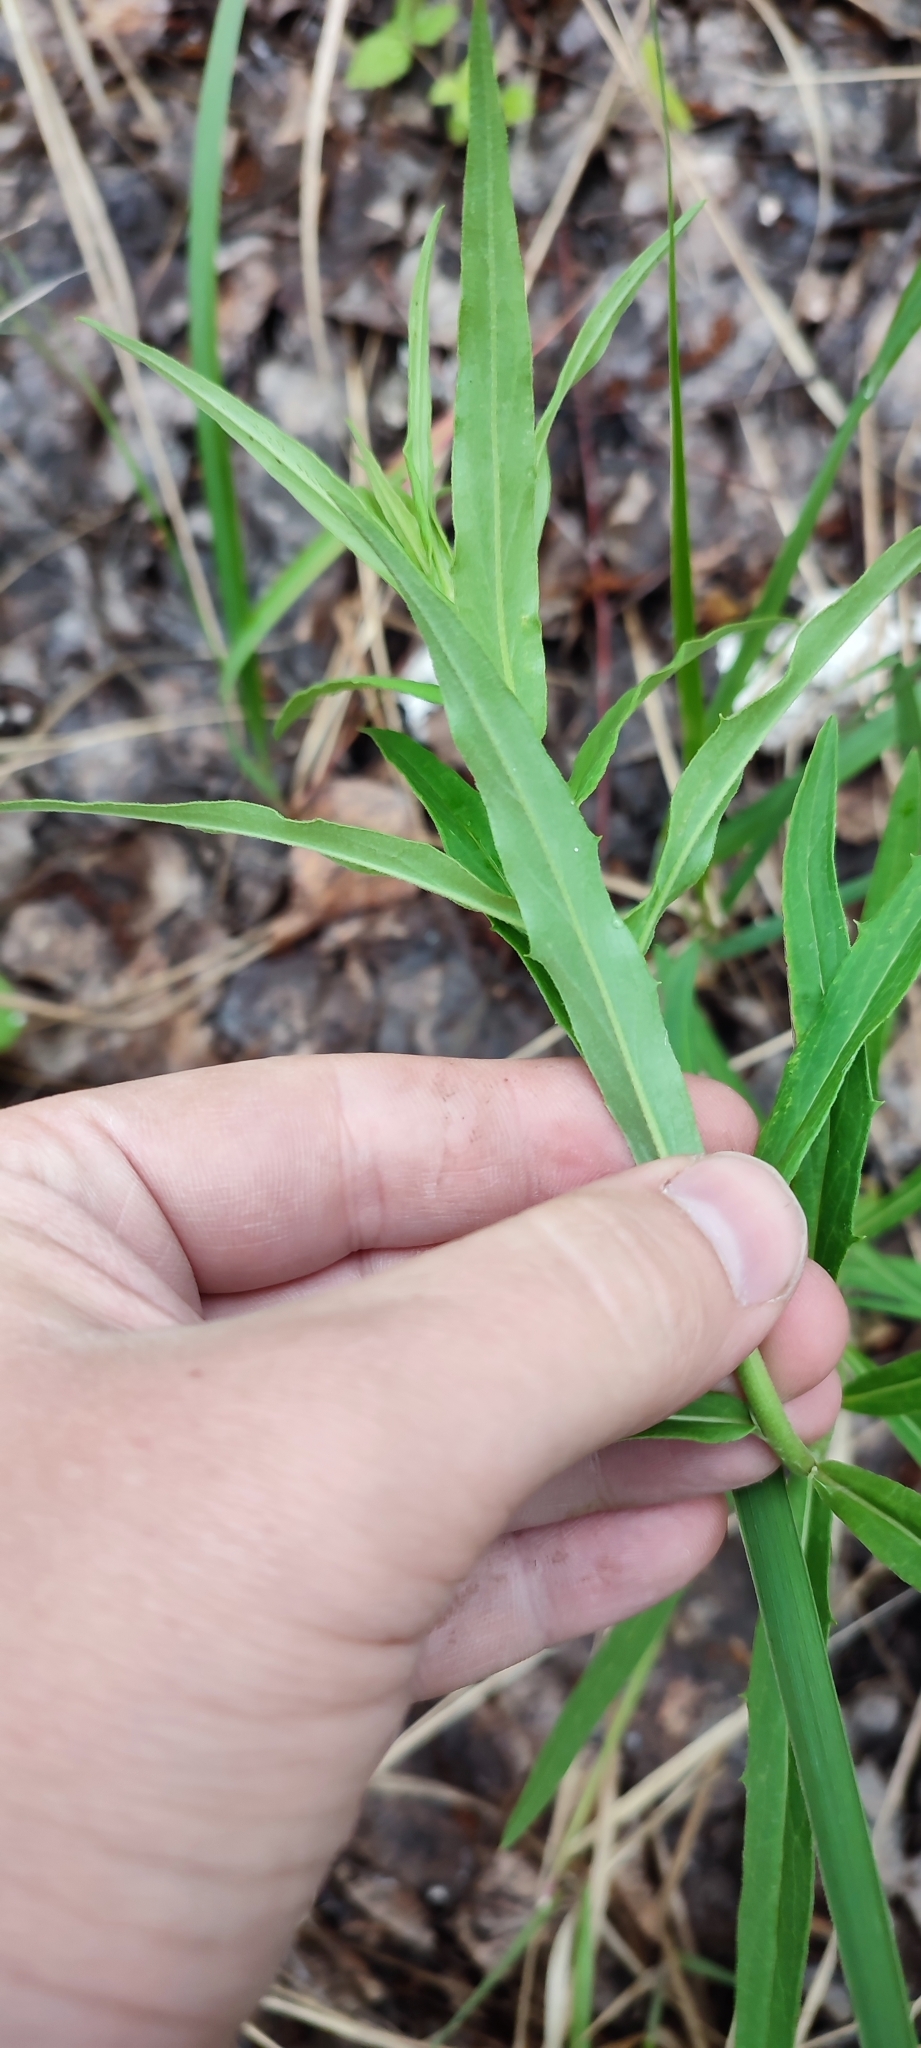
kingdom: Plantae
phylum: Tracheophyta
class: Magnoliopsida
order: Asterales
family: Asteraceae
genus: Hieracium
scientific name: Hieracium umbellatum
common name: Northern hawkweed
